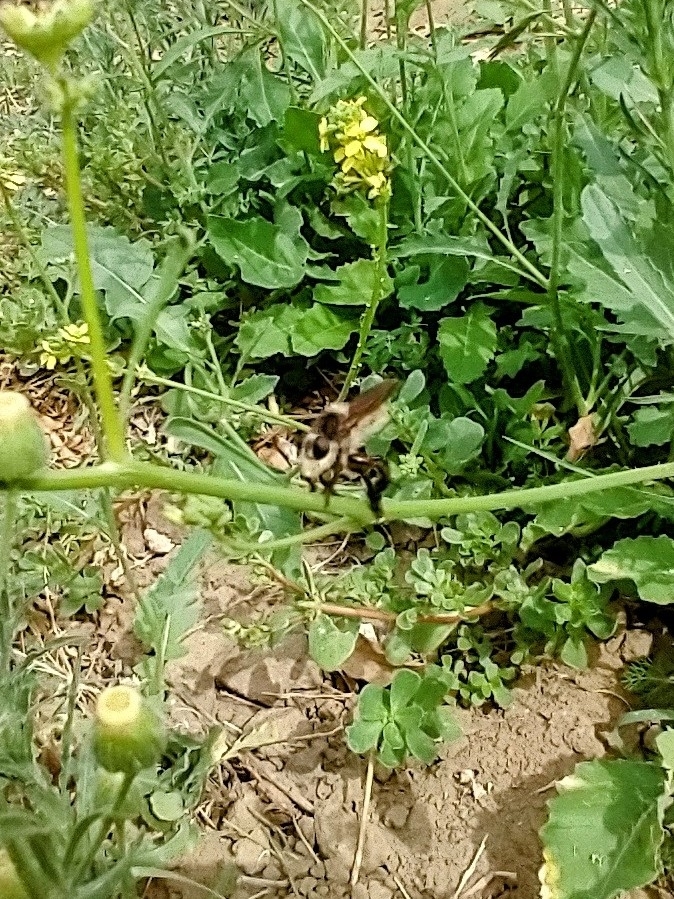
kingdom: Animalia
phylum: Arthropoda
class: Insecta
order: Diptera
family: Asilidae
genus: Mallophora
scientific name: Mallophora fautrix
